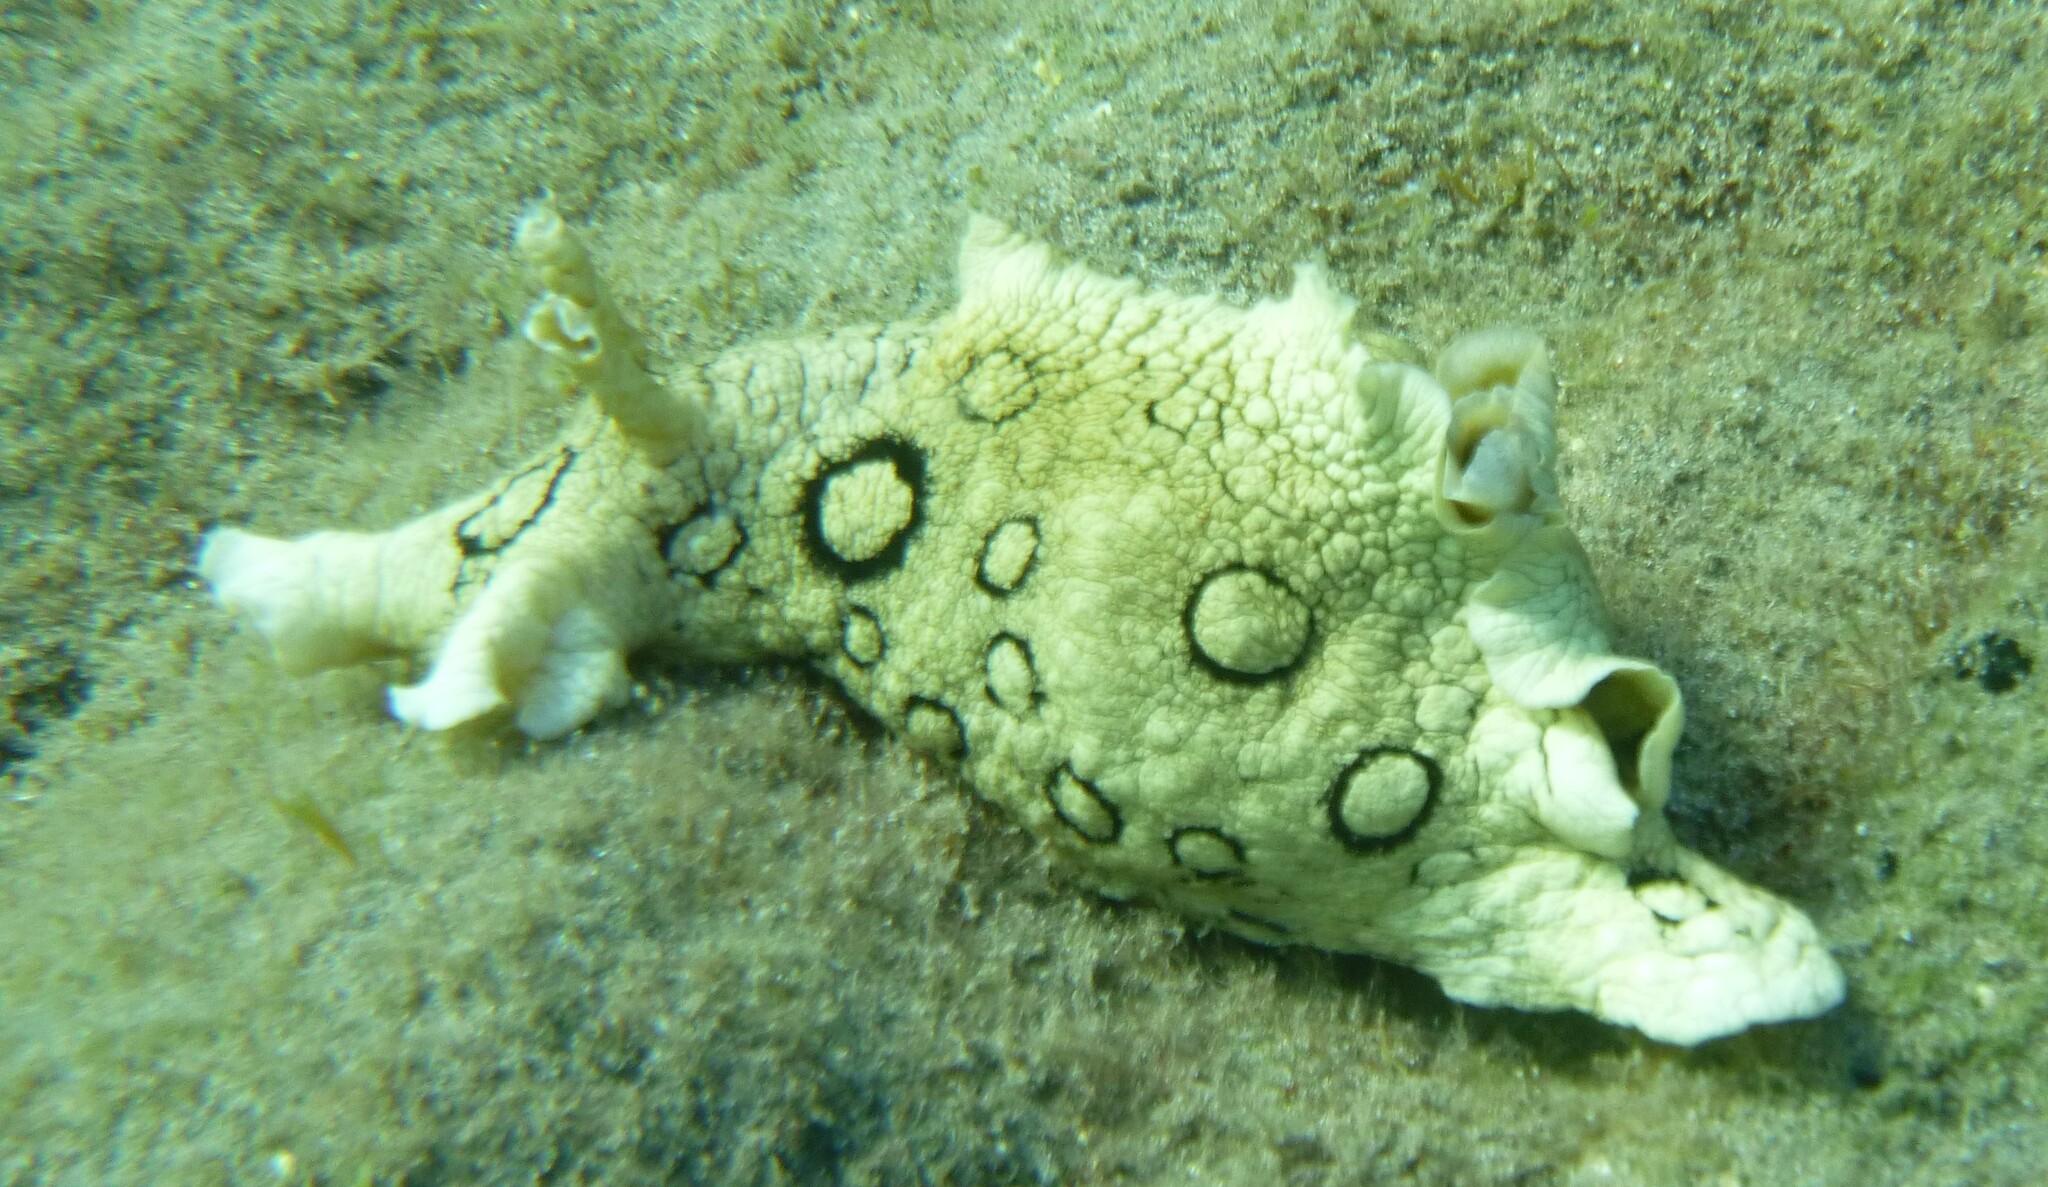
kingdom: Animalia
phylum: Mollusca
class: Gastropoda
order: Aplysiida
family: Aplysiidae
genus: Aplysia
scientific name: Aplysia dactylomela
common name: Large-spotted sea hare
